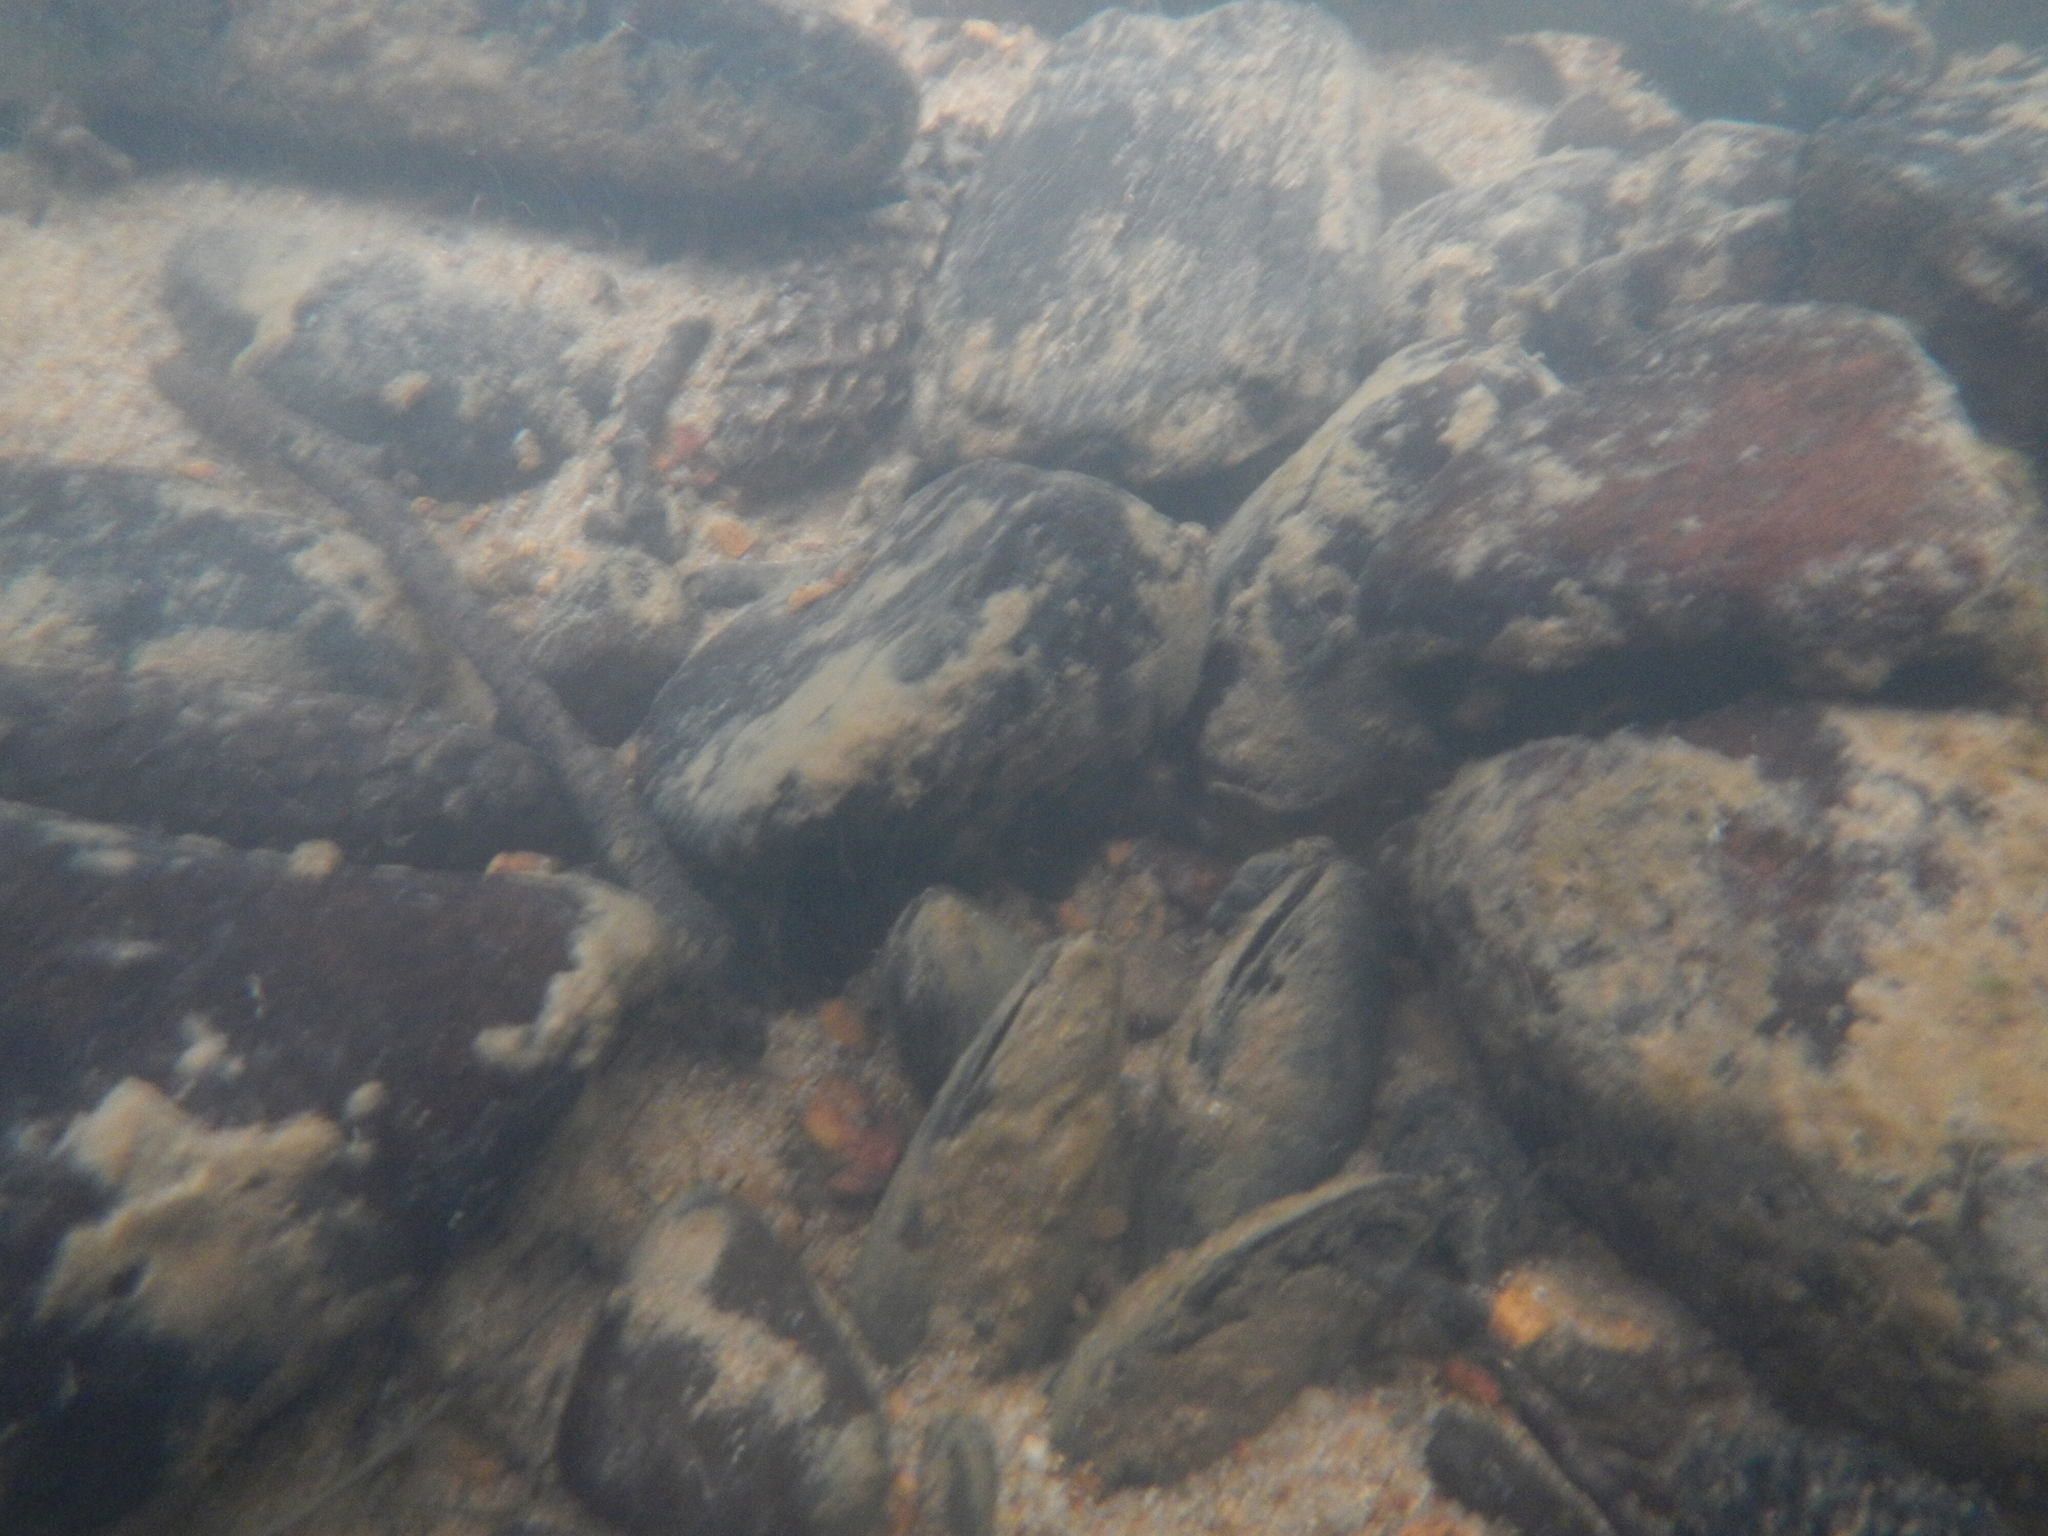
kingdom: Animalia
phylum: Mollusca
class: Bivalvia
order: Unionida
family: Margaritiferidae
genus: Margaritifera
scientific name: Margaritifera falcata
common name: Western pearlshell
